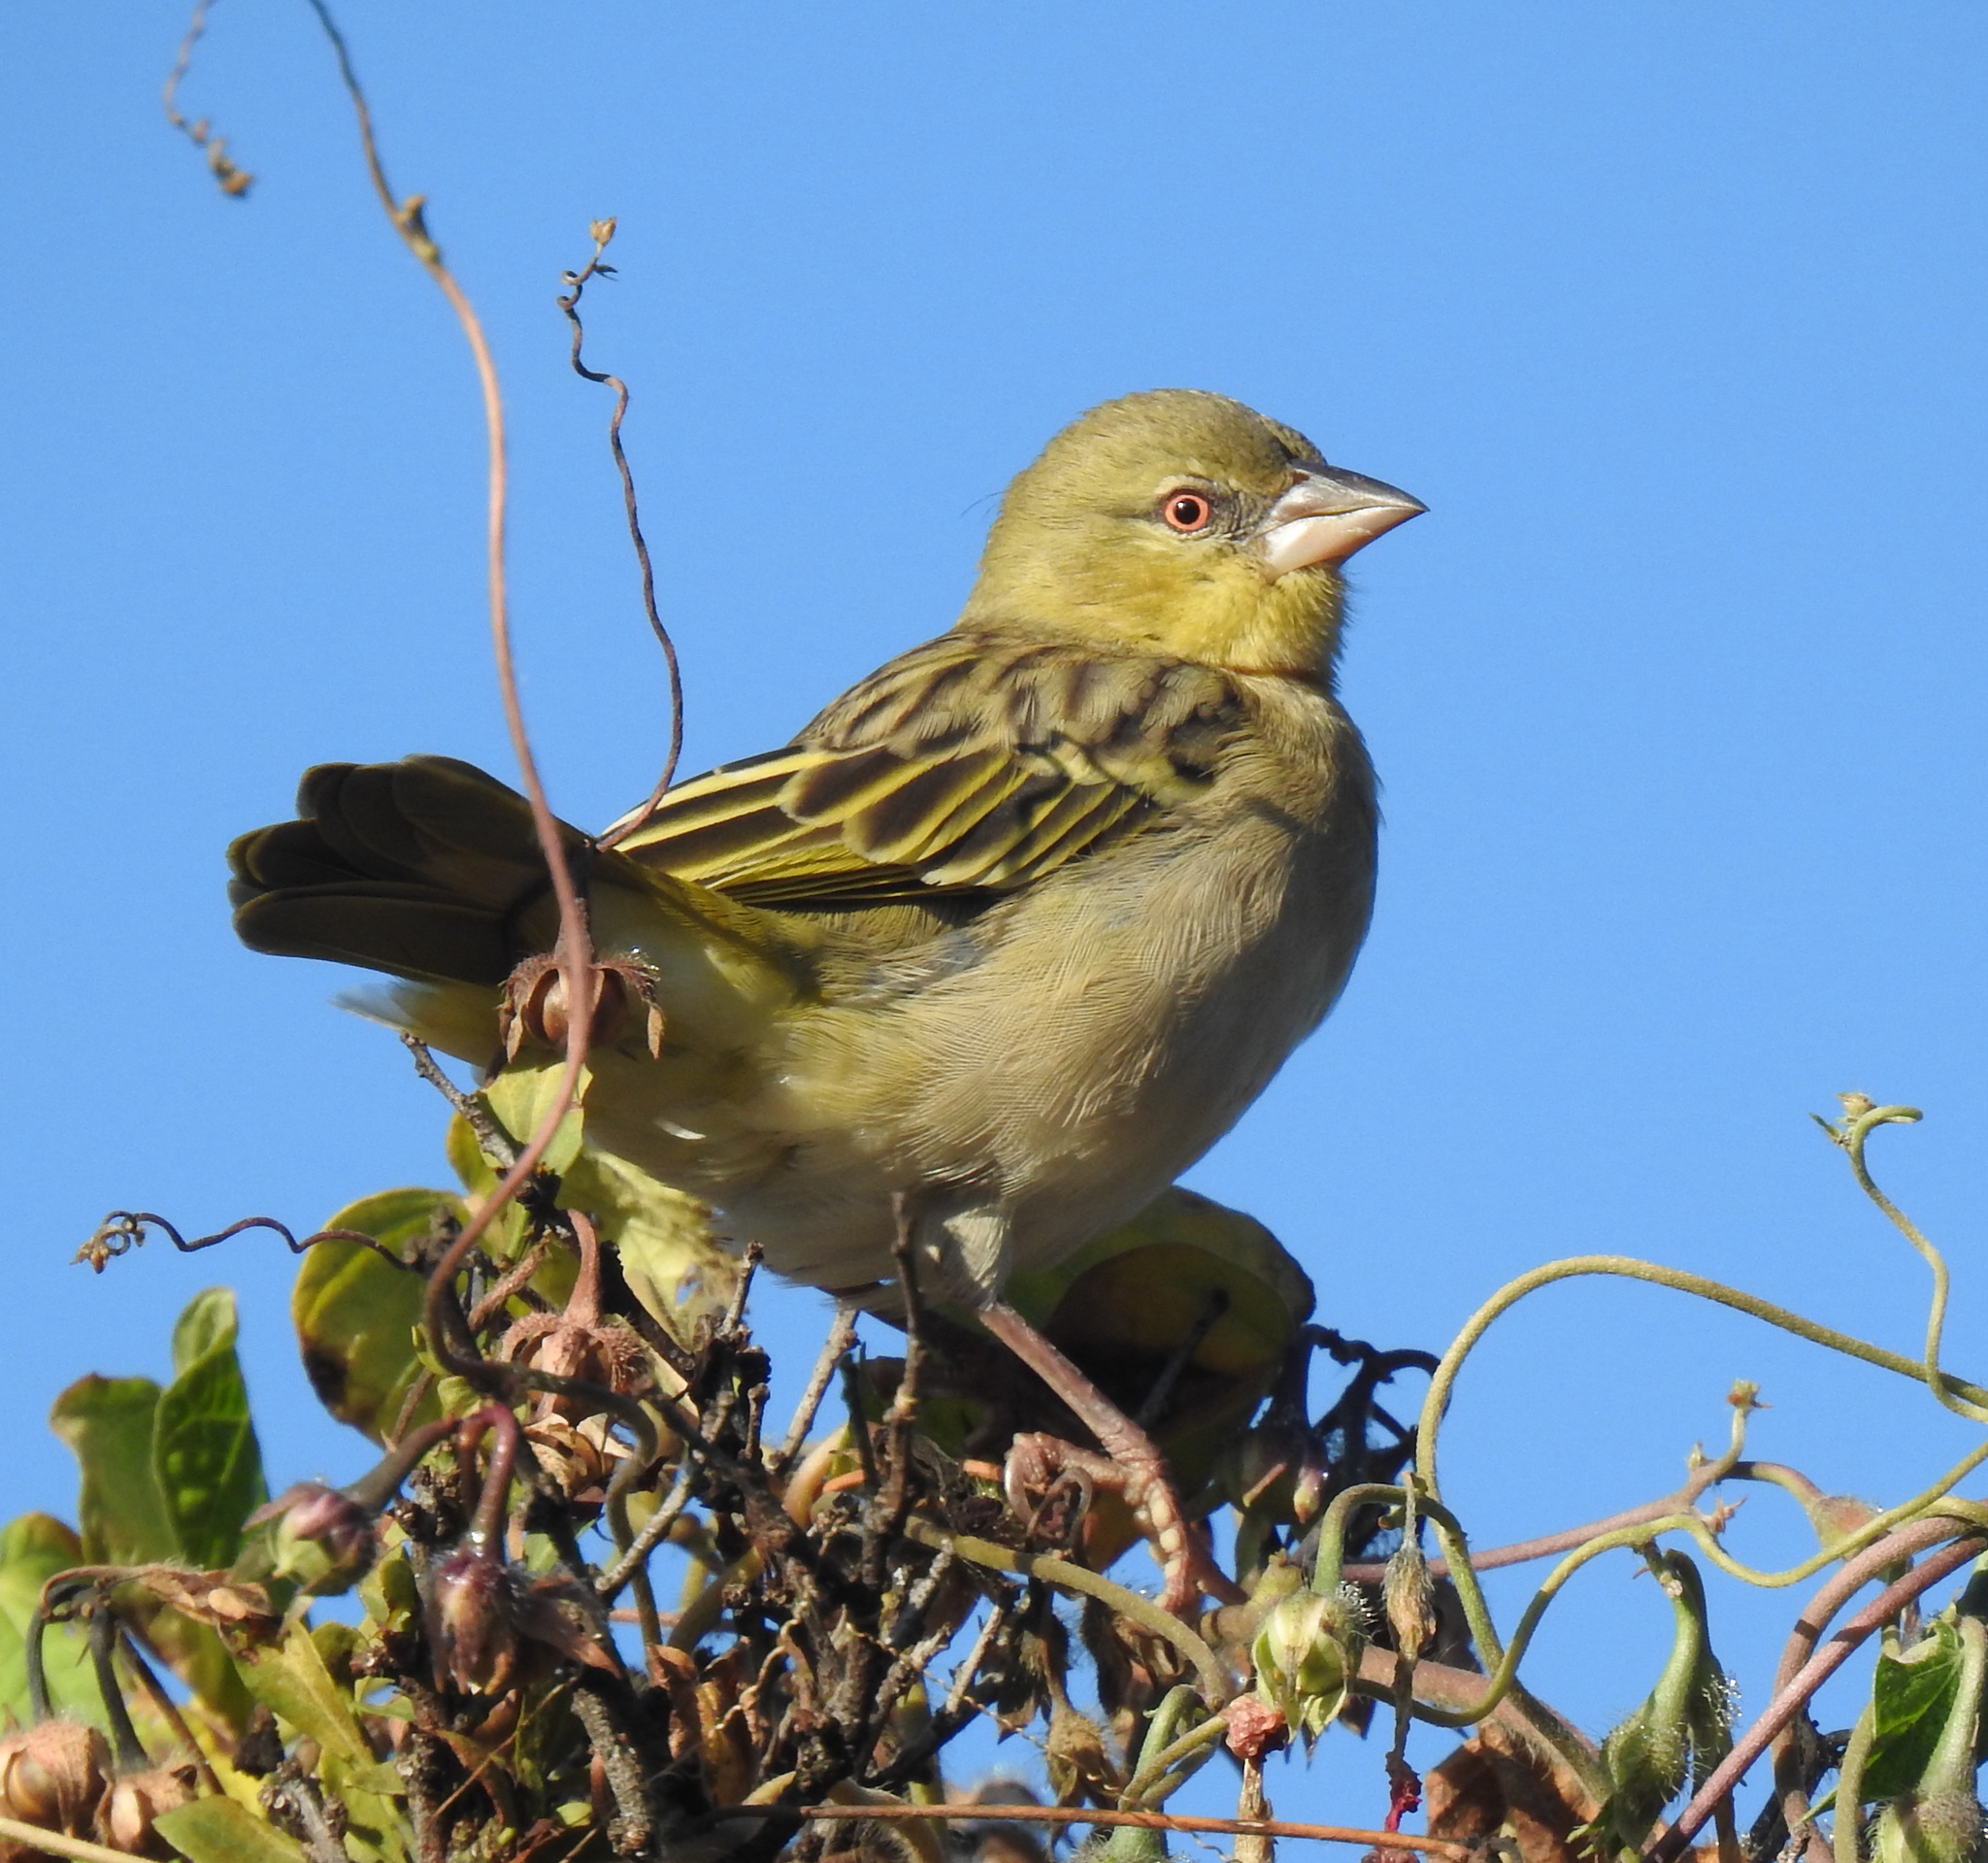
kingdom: Animalia
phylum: Chordata
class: Aves
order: Passeriformes
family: Ploceidae
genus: Ploceus
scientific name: Ploceus velatus
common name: Southern masked weaver
